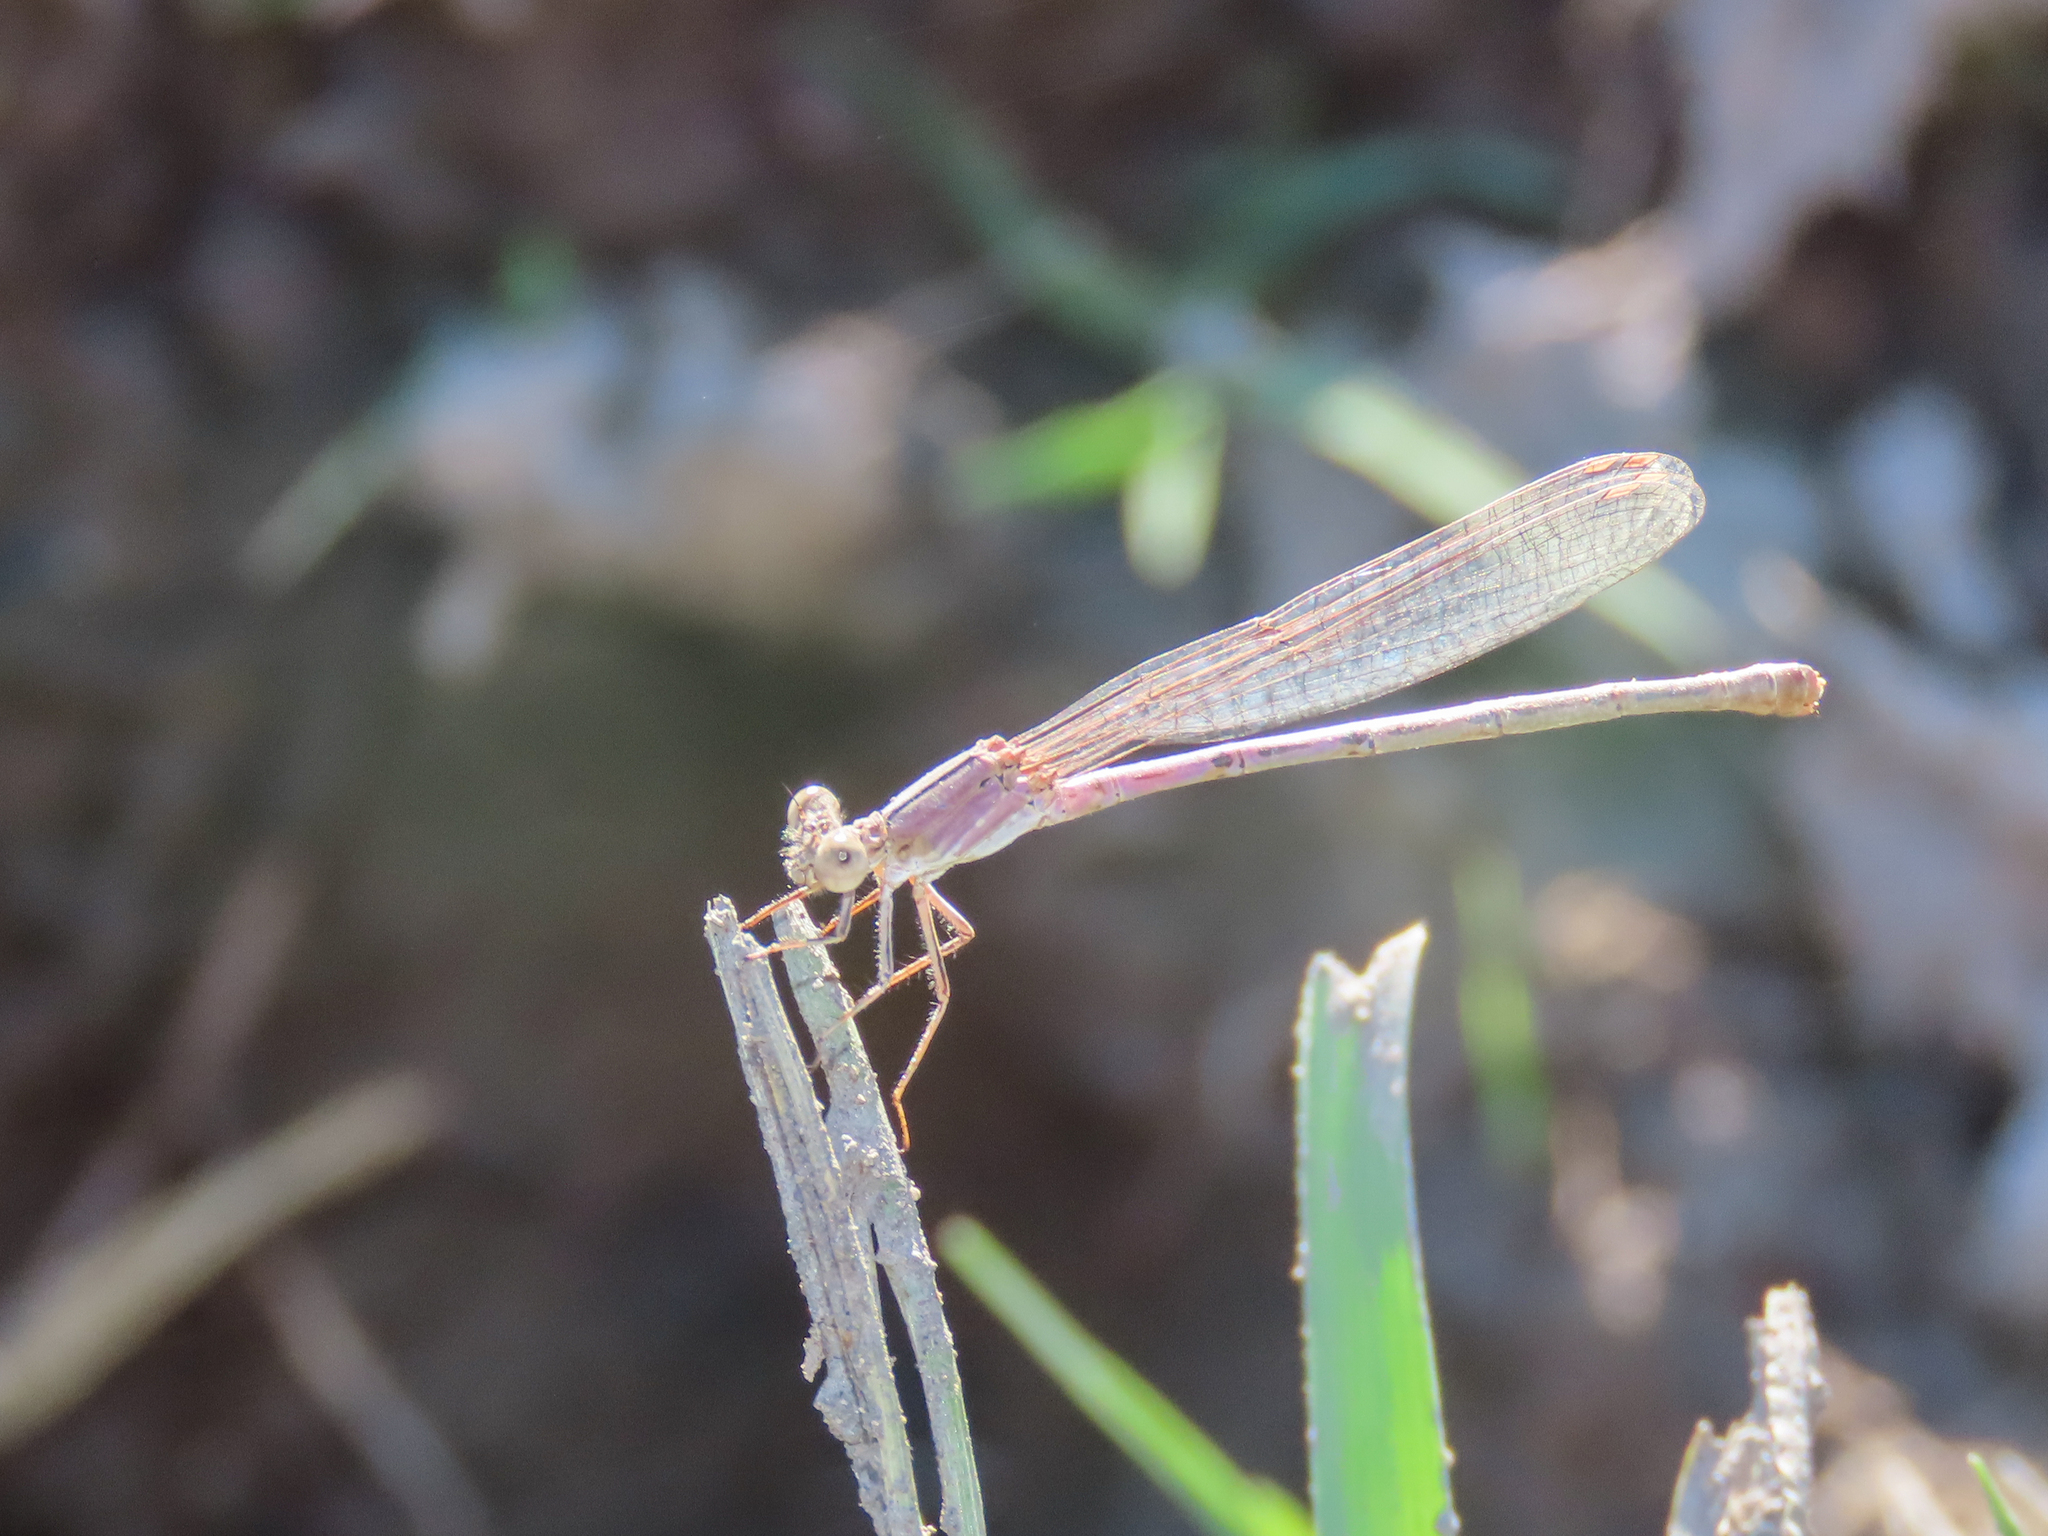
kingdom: Animalia
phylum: Arthropoda
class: Insecta
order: Odonata
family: Coenagrionidae
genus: Argia
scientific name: Argia pallens
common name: Amethyst dancer
